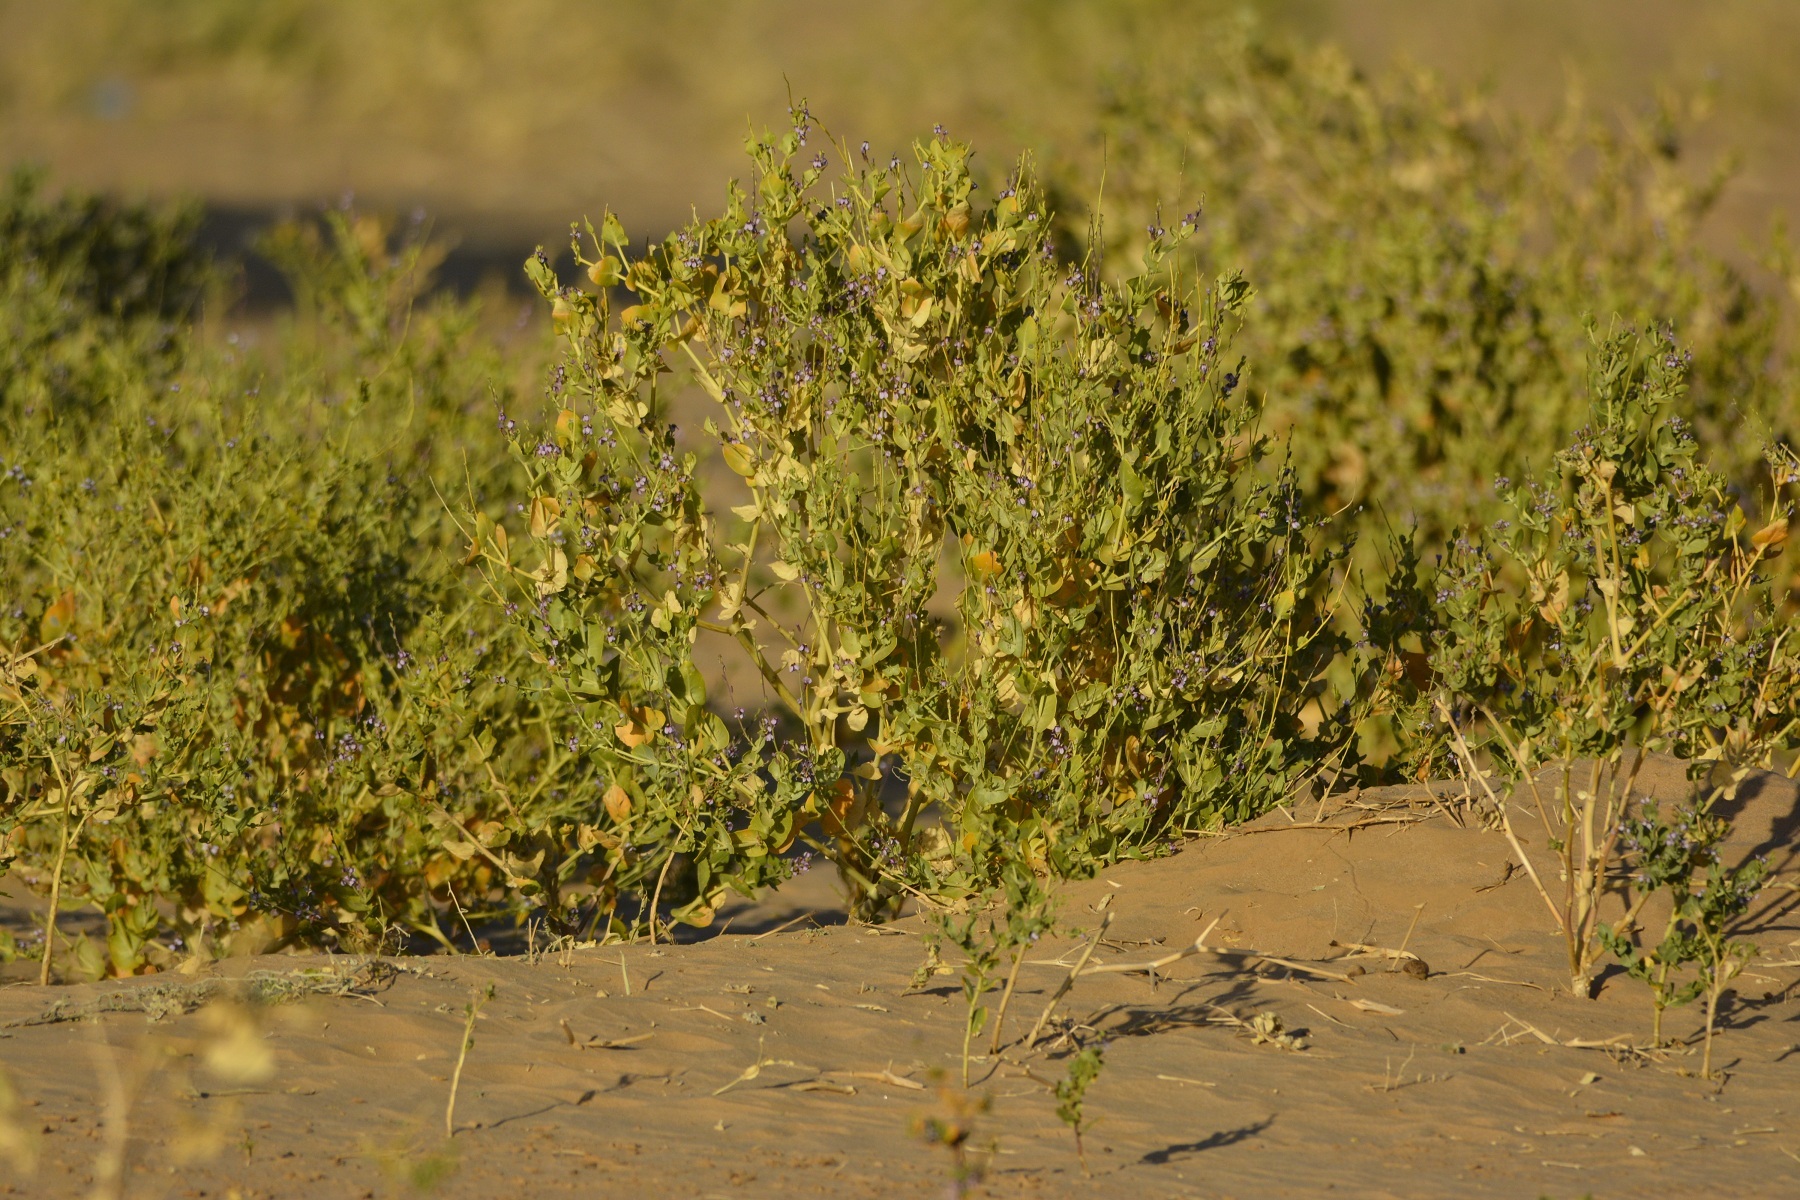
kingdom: Plantae
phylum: Tracheophyta
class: Magnoliopsida
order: Brassicales
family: Brassicaceae
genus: Schouwia
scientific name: Schouwia purpurea
